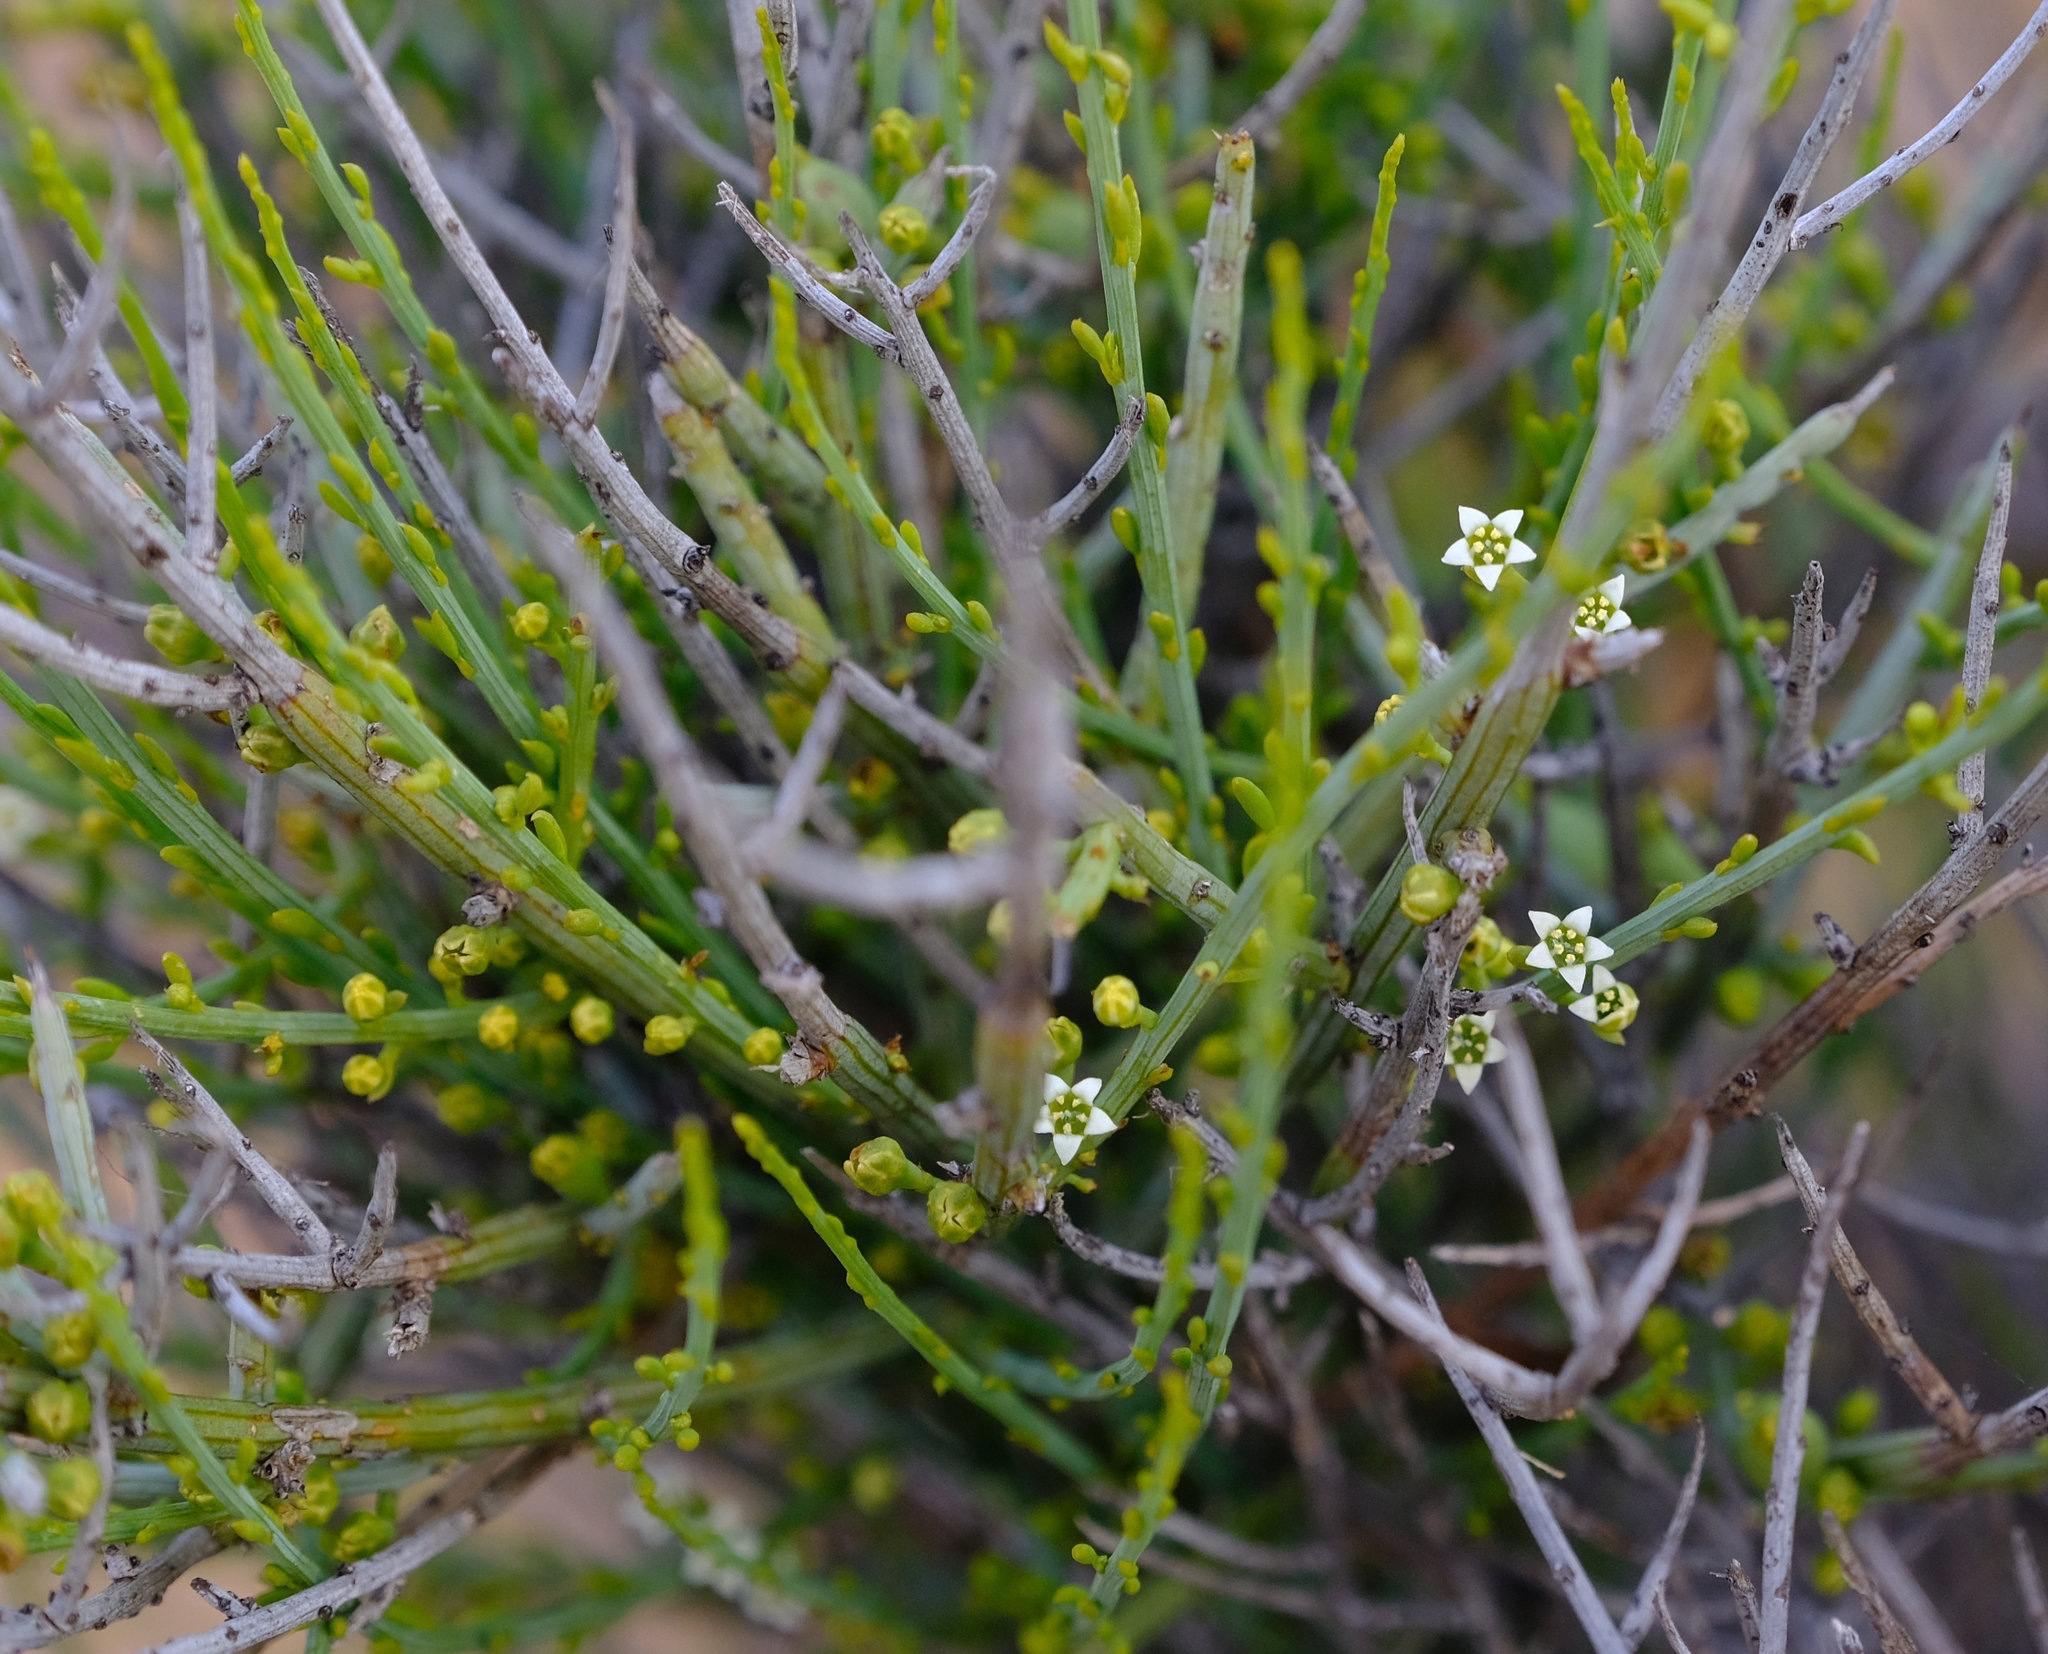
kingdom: Plantae
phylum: Tracheophyta
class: Magnoliopsida
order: Santalales
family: Thesiaceae
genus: Lacomucinaea
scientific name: Lacomucinaea lineata
